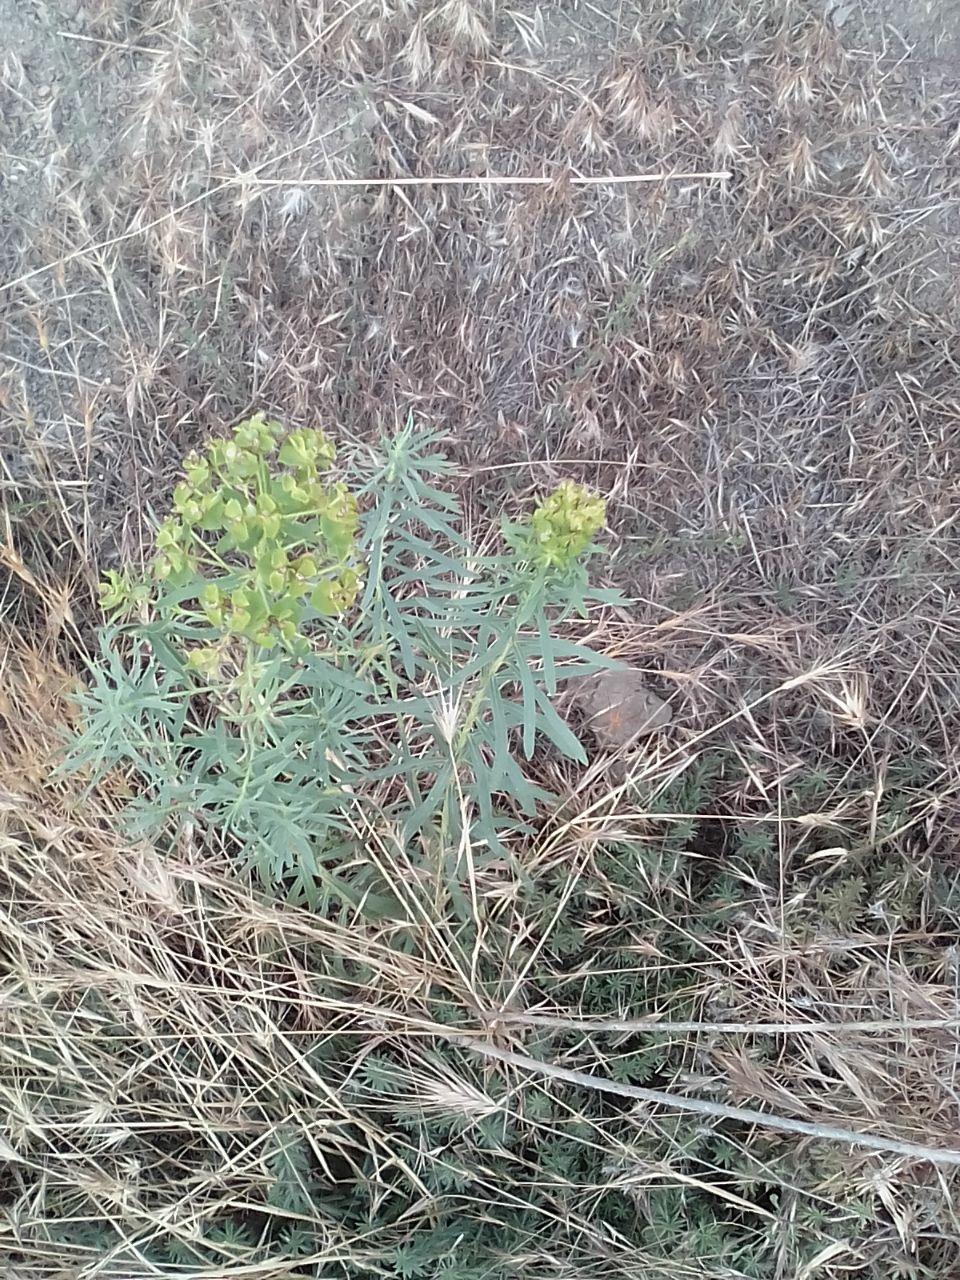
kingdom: Plantae
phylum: Tracheophyta
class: Magnoliopsida
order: Malpighiales
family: Euphorbiaceae
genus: Euphorbia
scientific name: Euphorbia virgata
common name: Leafy spurge
